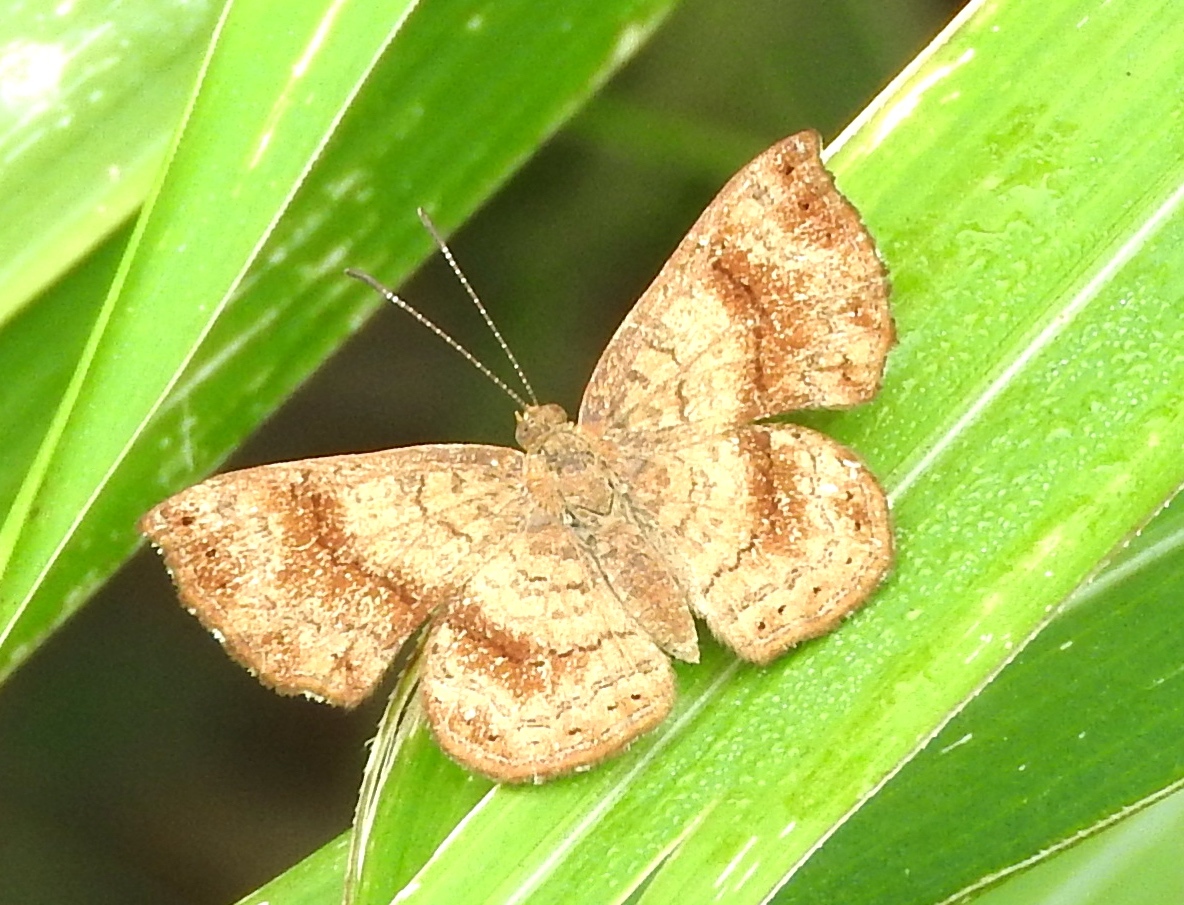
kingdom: Animalia
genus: Calephelis
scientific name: Calephelis mexicana
